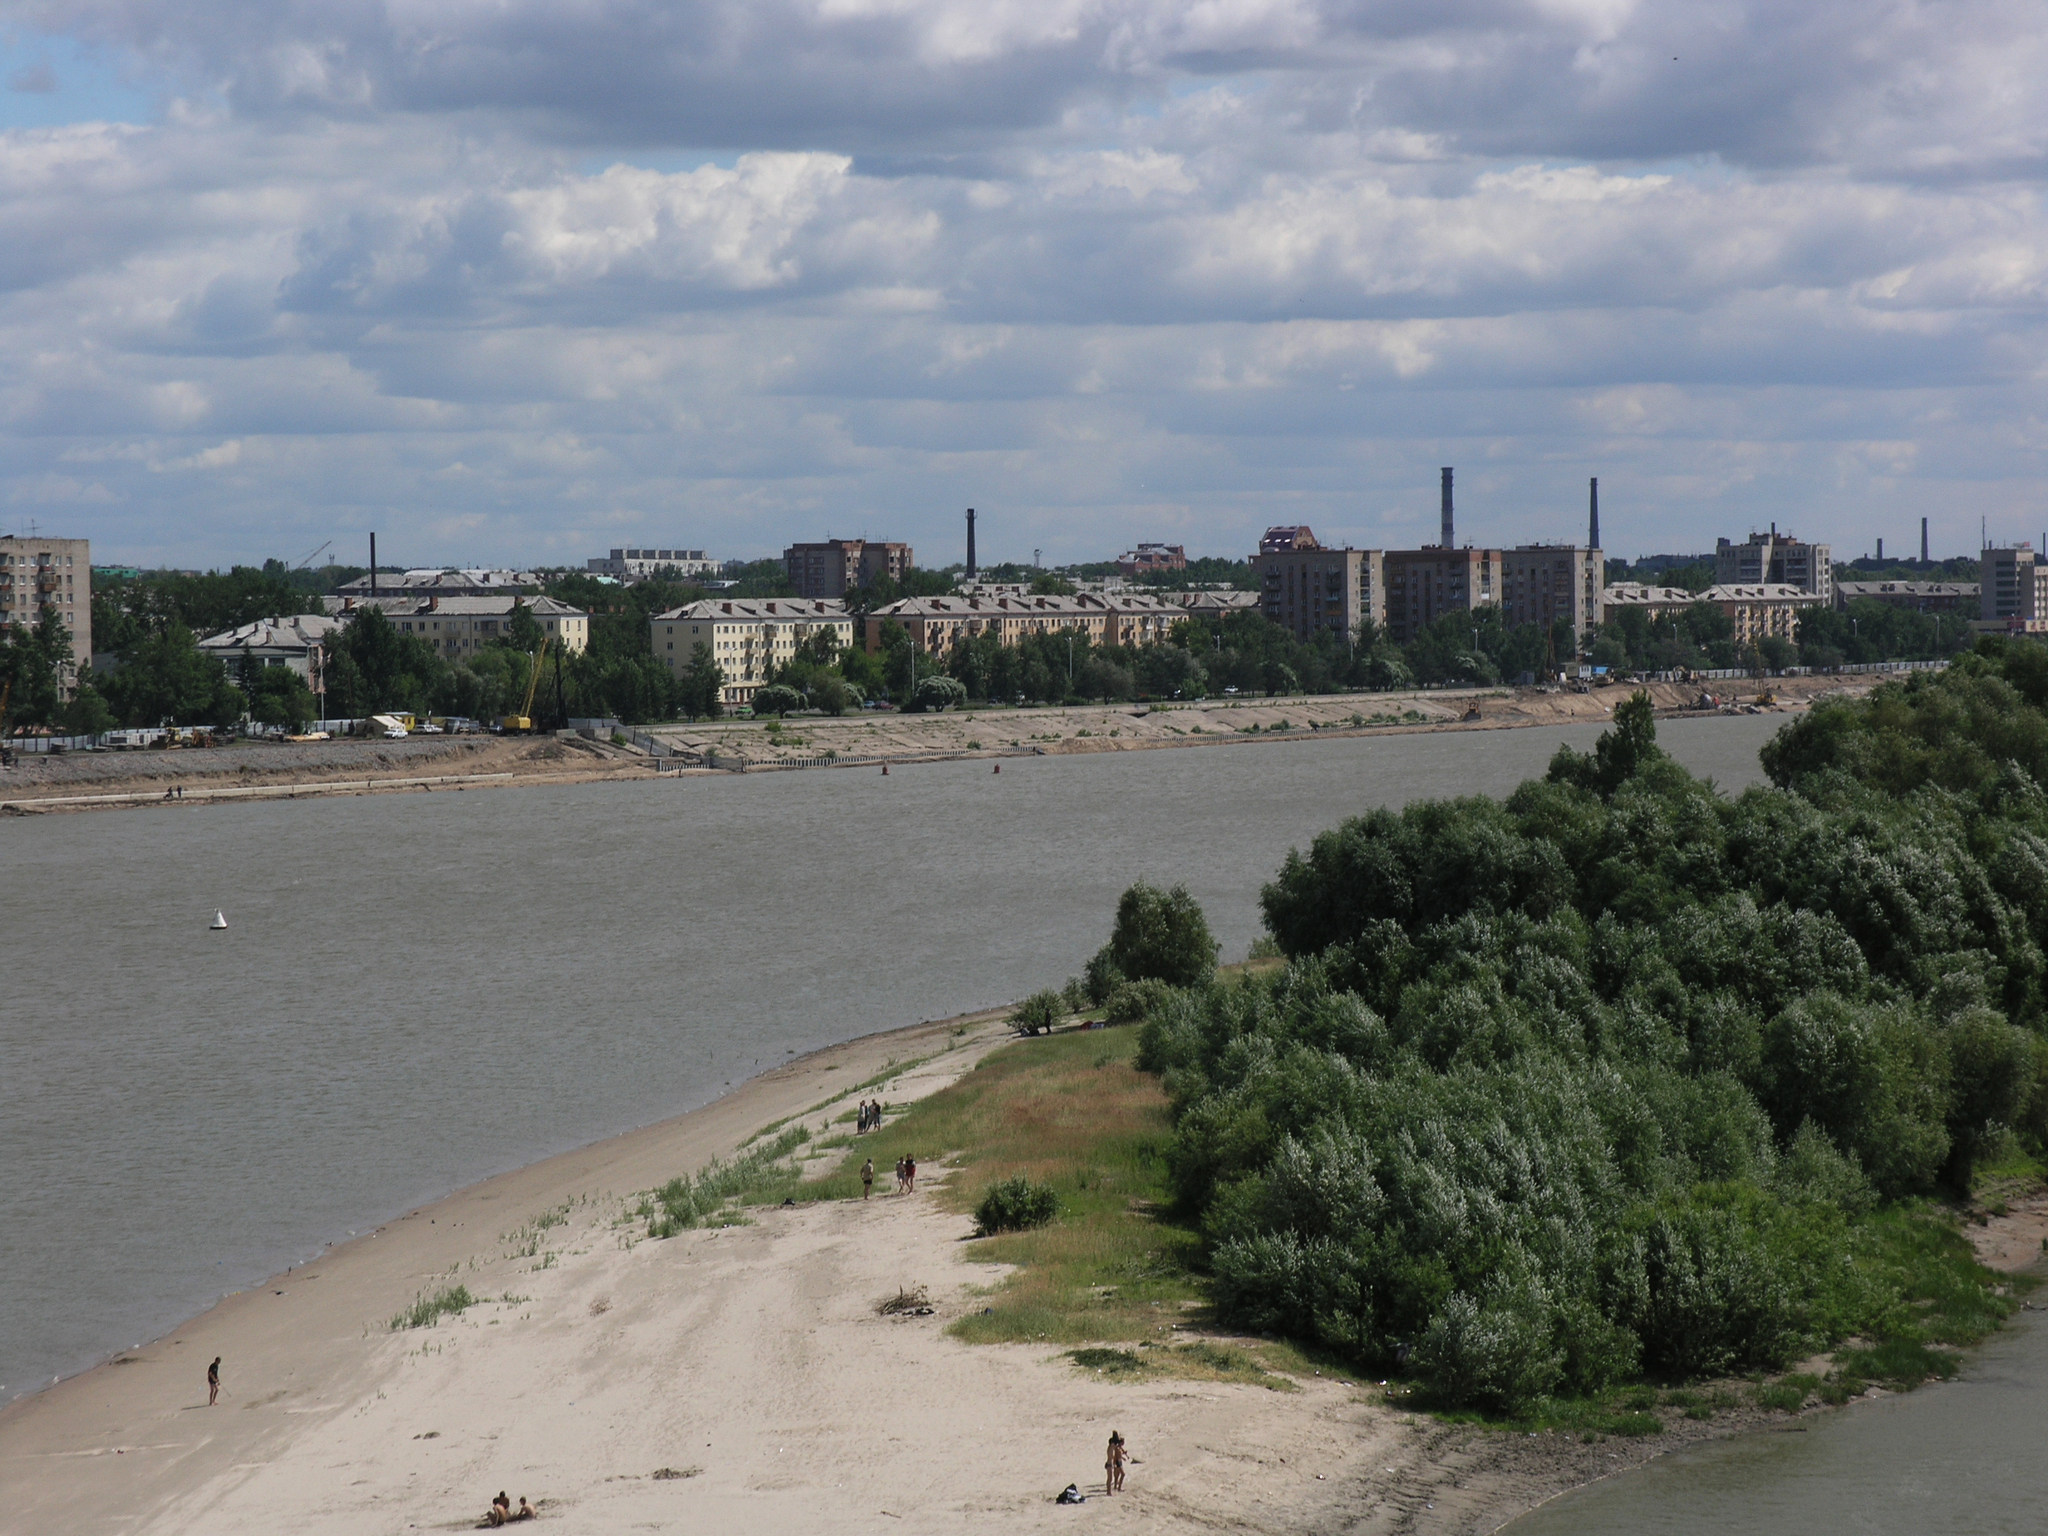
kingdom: Plantae
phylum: Tracheophyta
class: Magnoliopsida
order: Malpighiales
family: Salicaceae
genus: Salix
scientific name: Salix alba
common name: White willow
